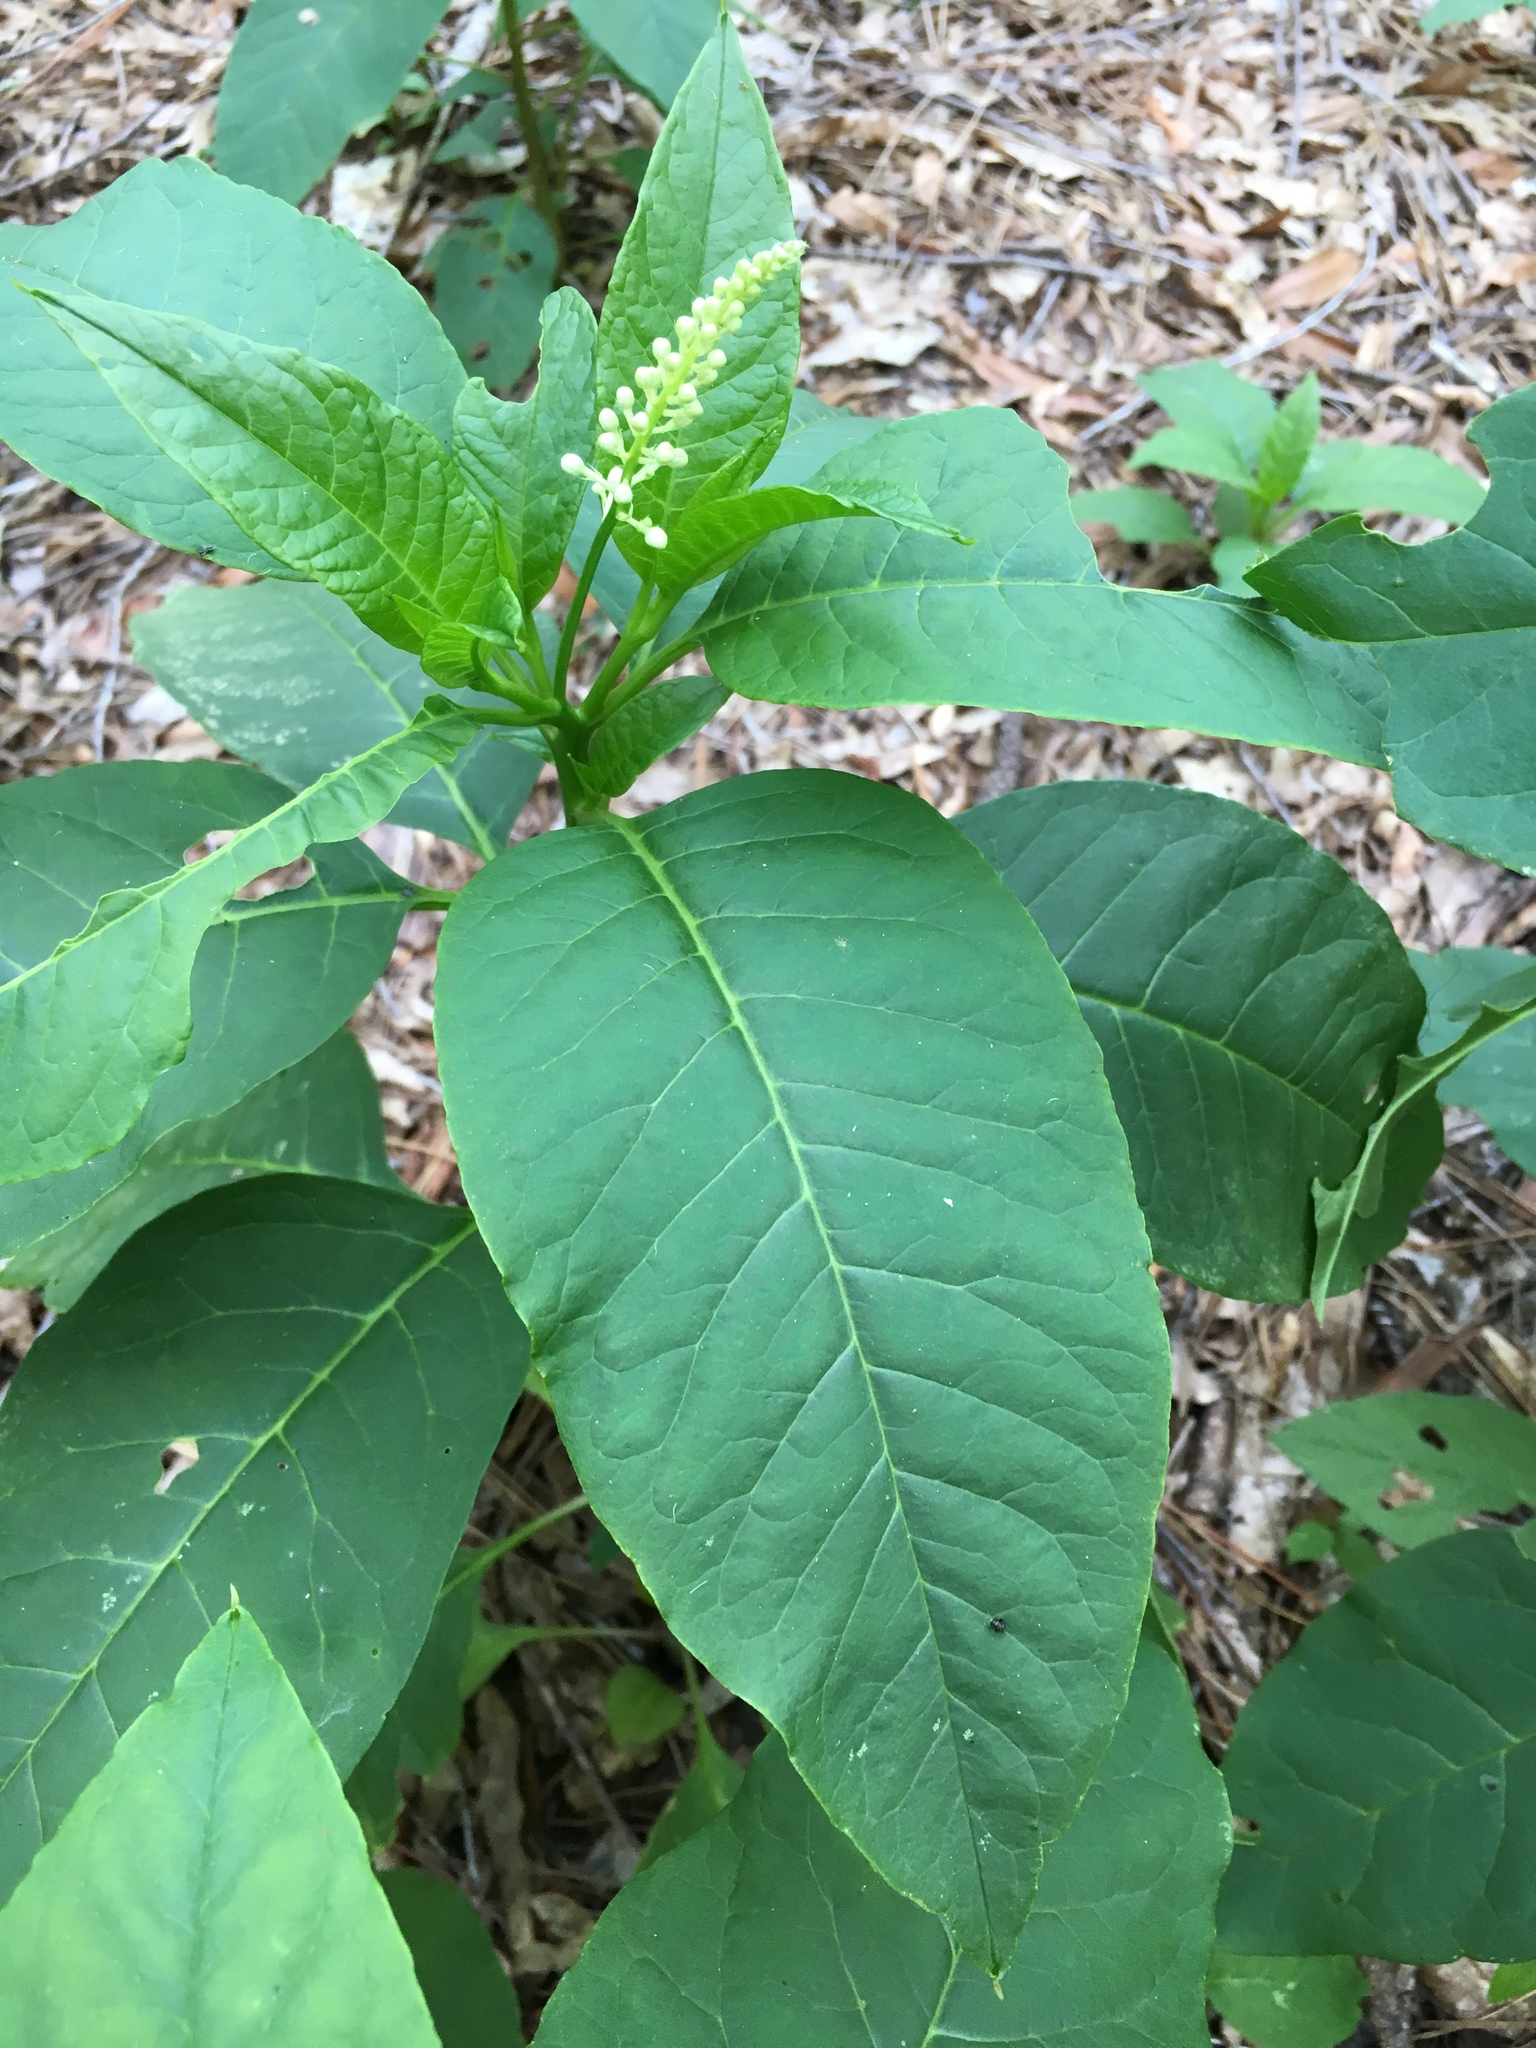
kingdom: Plantae
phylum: Tracheophyta
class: Magnoliopsida
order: Caryophyllales
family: Phytolaccaceae
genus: Phytolacca
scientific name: Phytolacca americana
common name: American pokeweed
